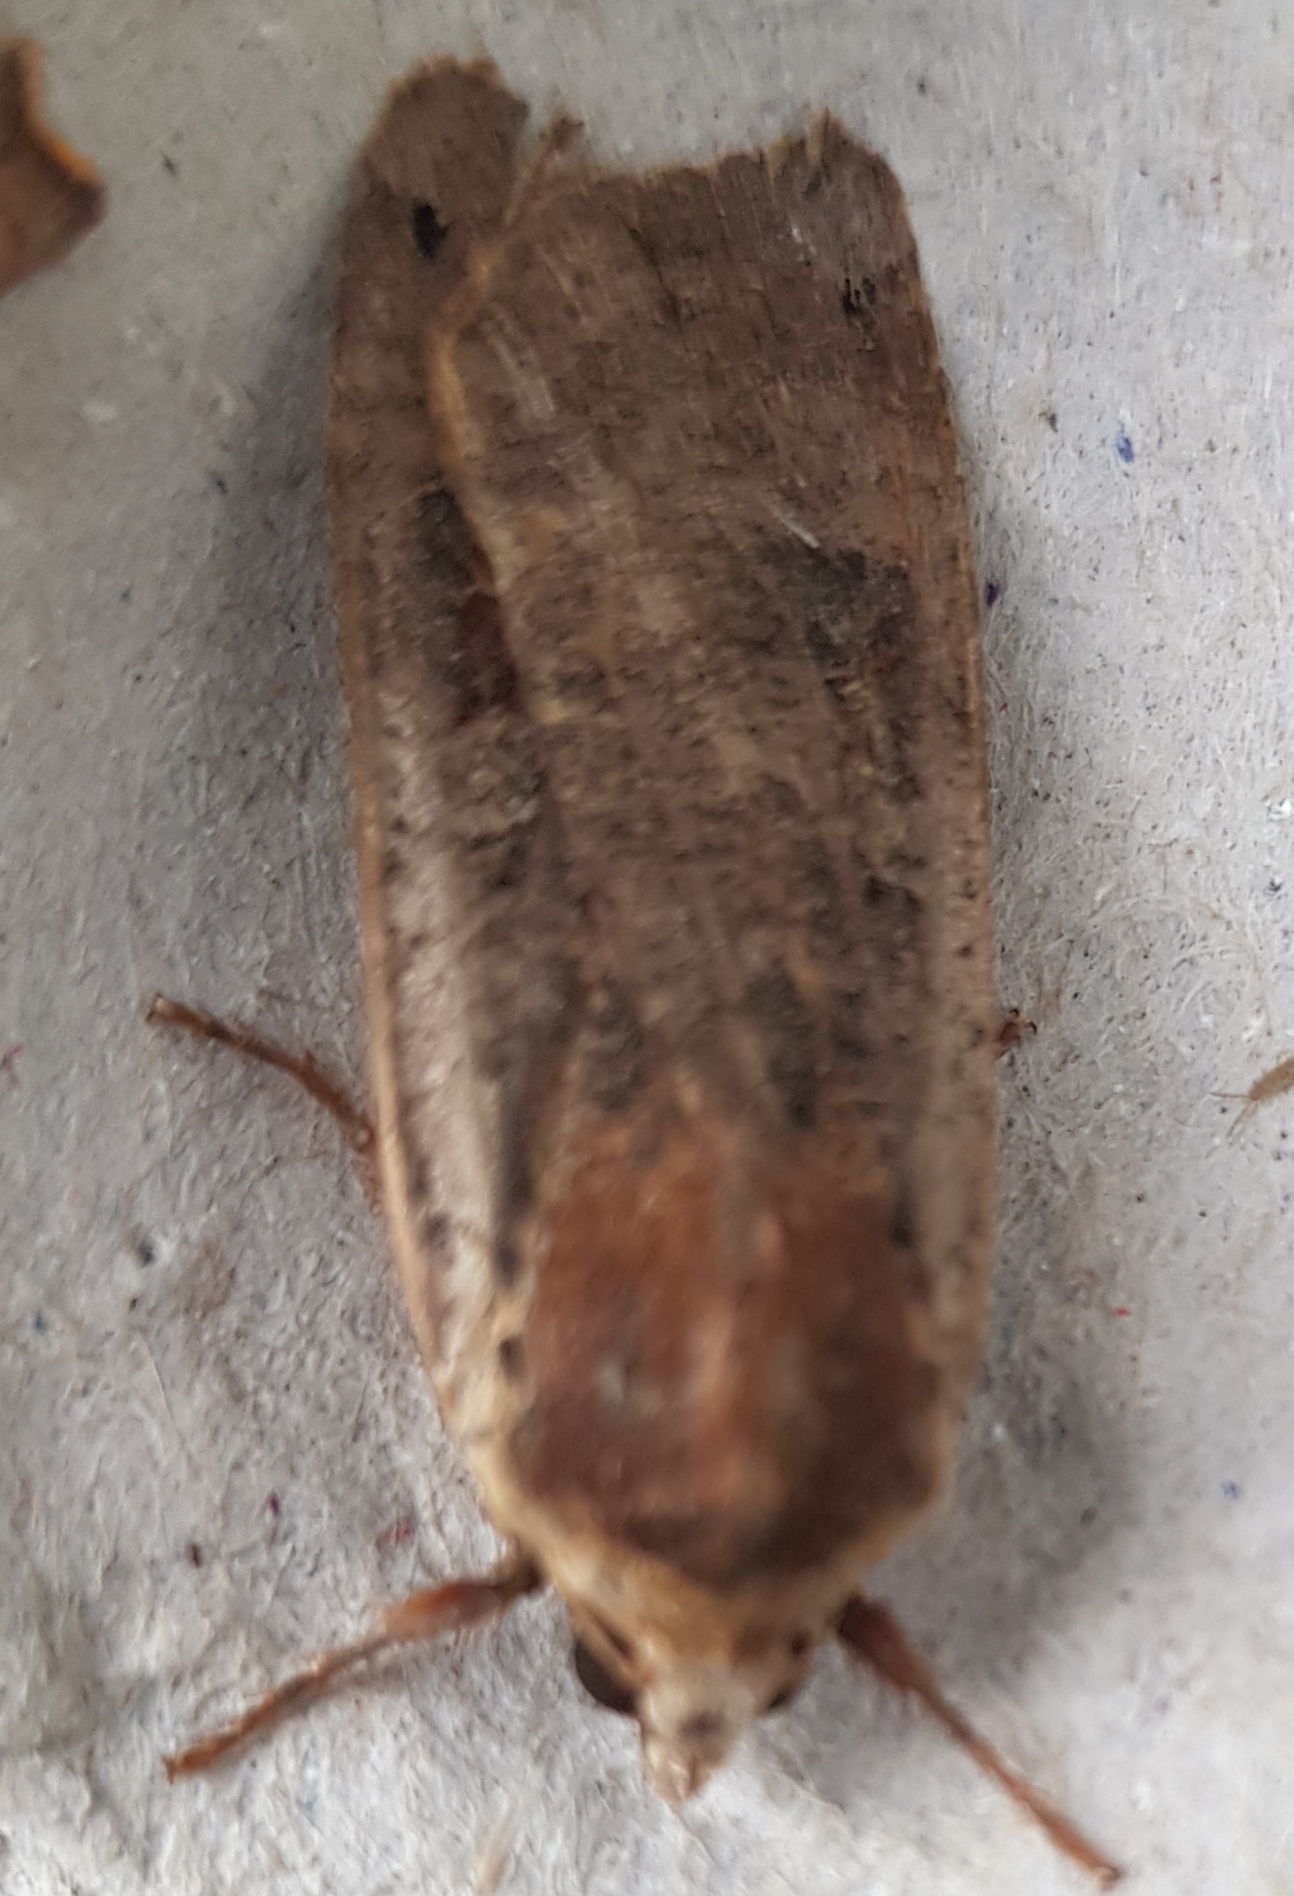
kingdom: Animalia
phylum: Arthropoda
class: Insecta
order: Lepidoptera
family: Noctuidae
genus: Noctua
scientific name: Noctua pronuba
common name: Large yellow underwing
